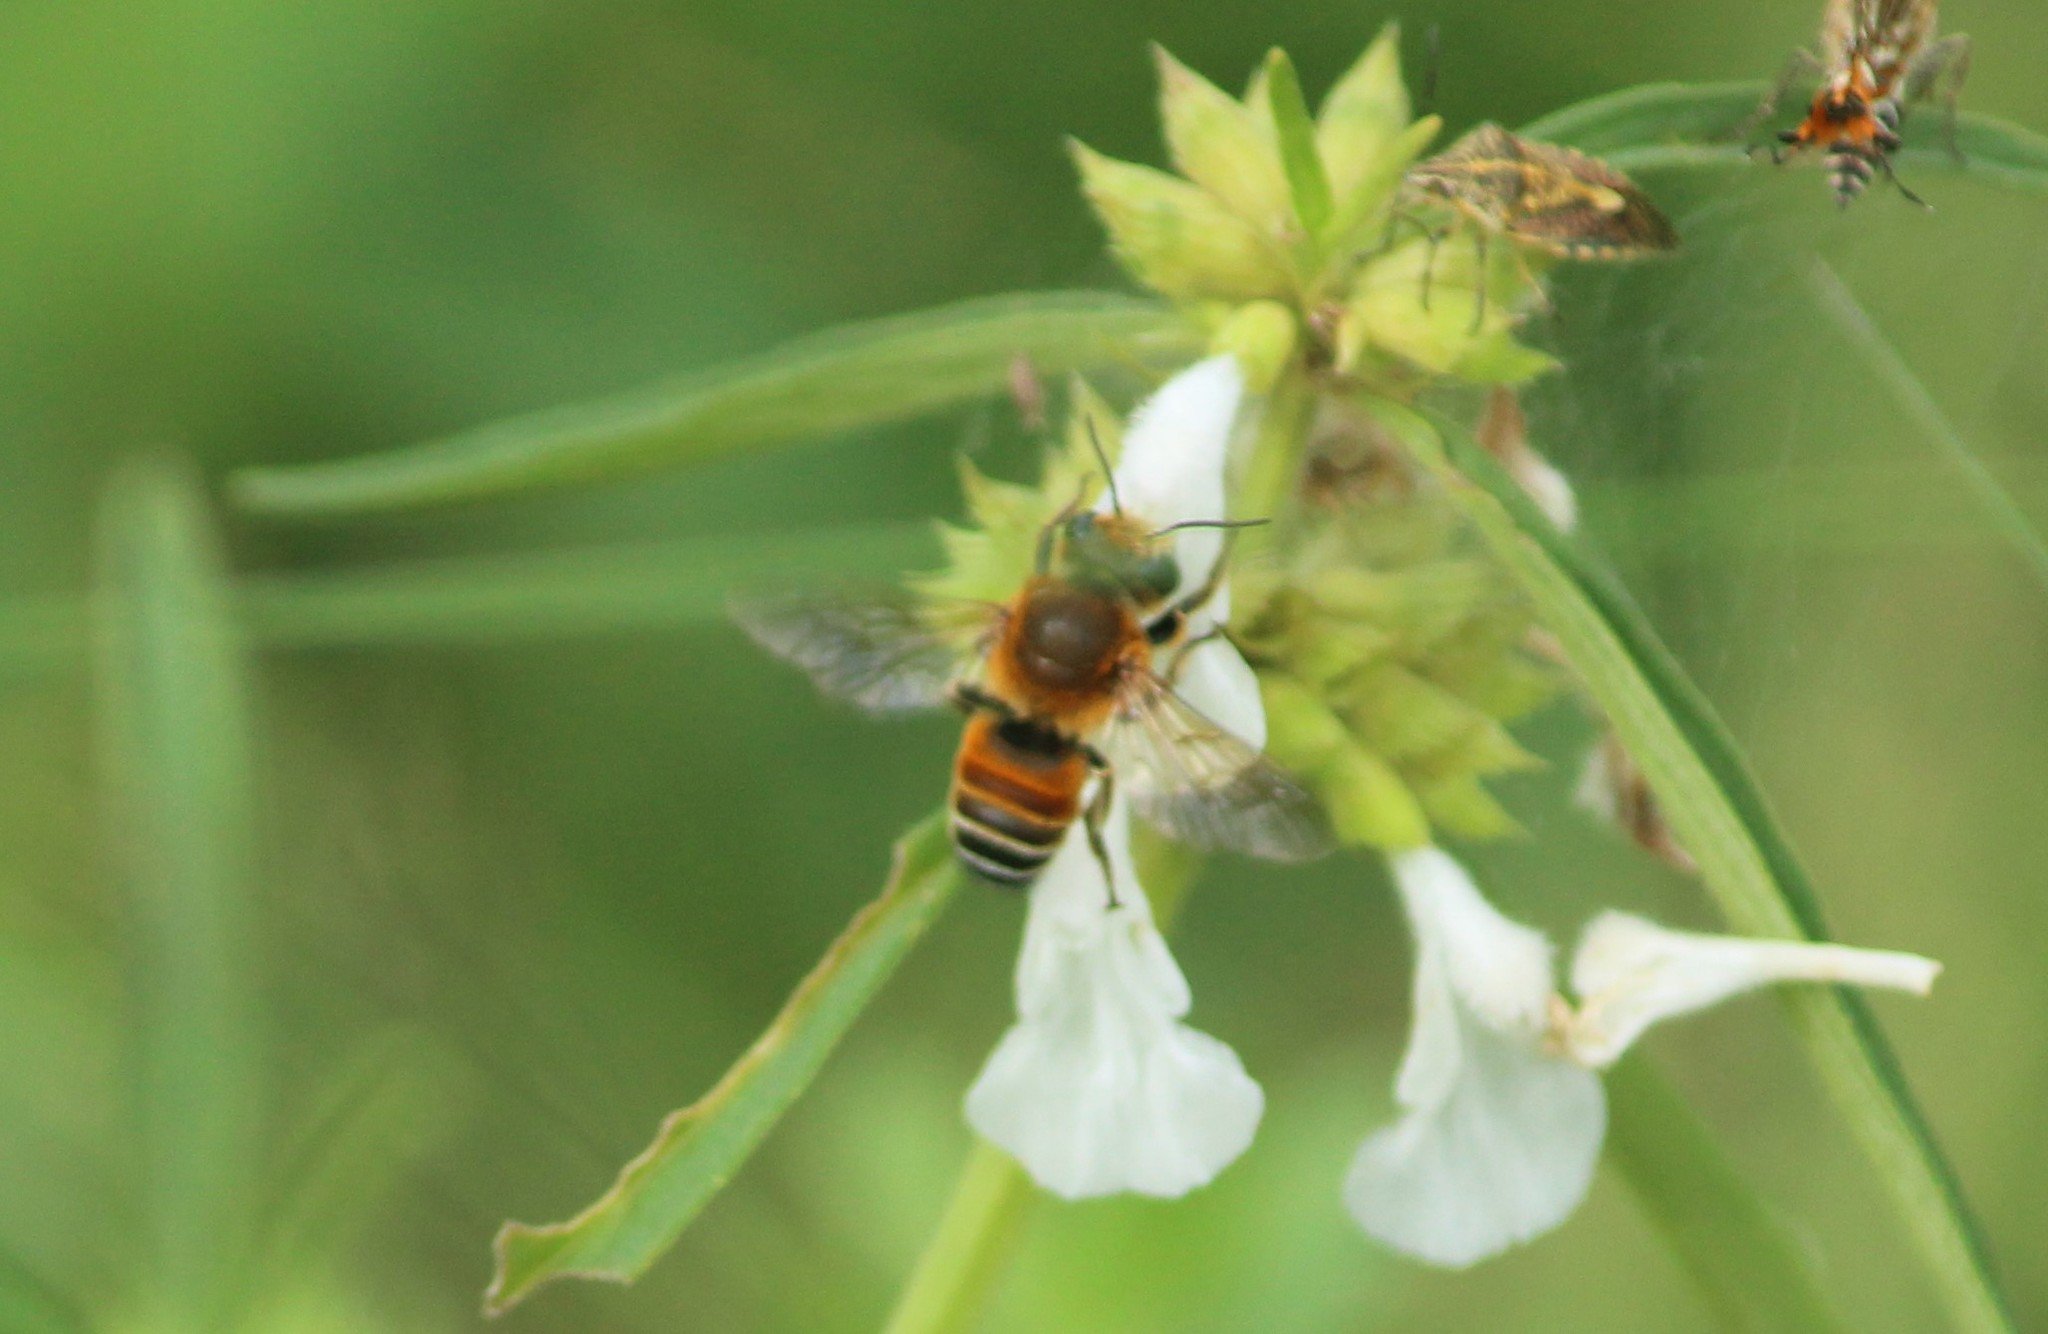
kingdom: Animalia
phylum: Arthropoda
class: Insecta
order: Hymenoptera
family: Megachilidae
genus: Megachile
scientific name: Megachile lanata
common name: Wooly wall bee
